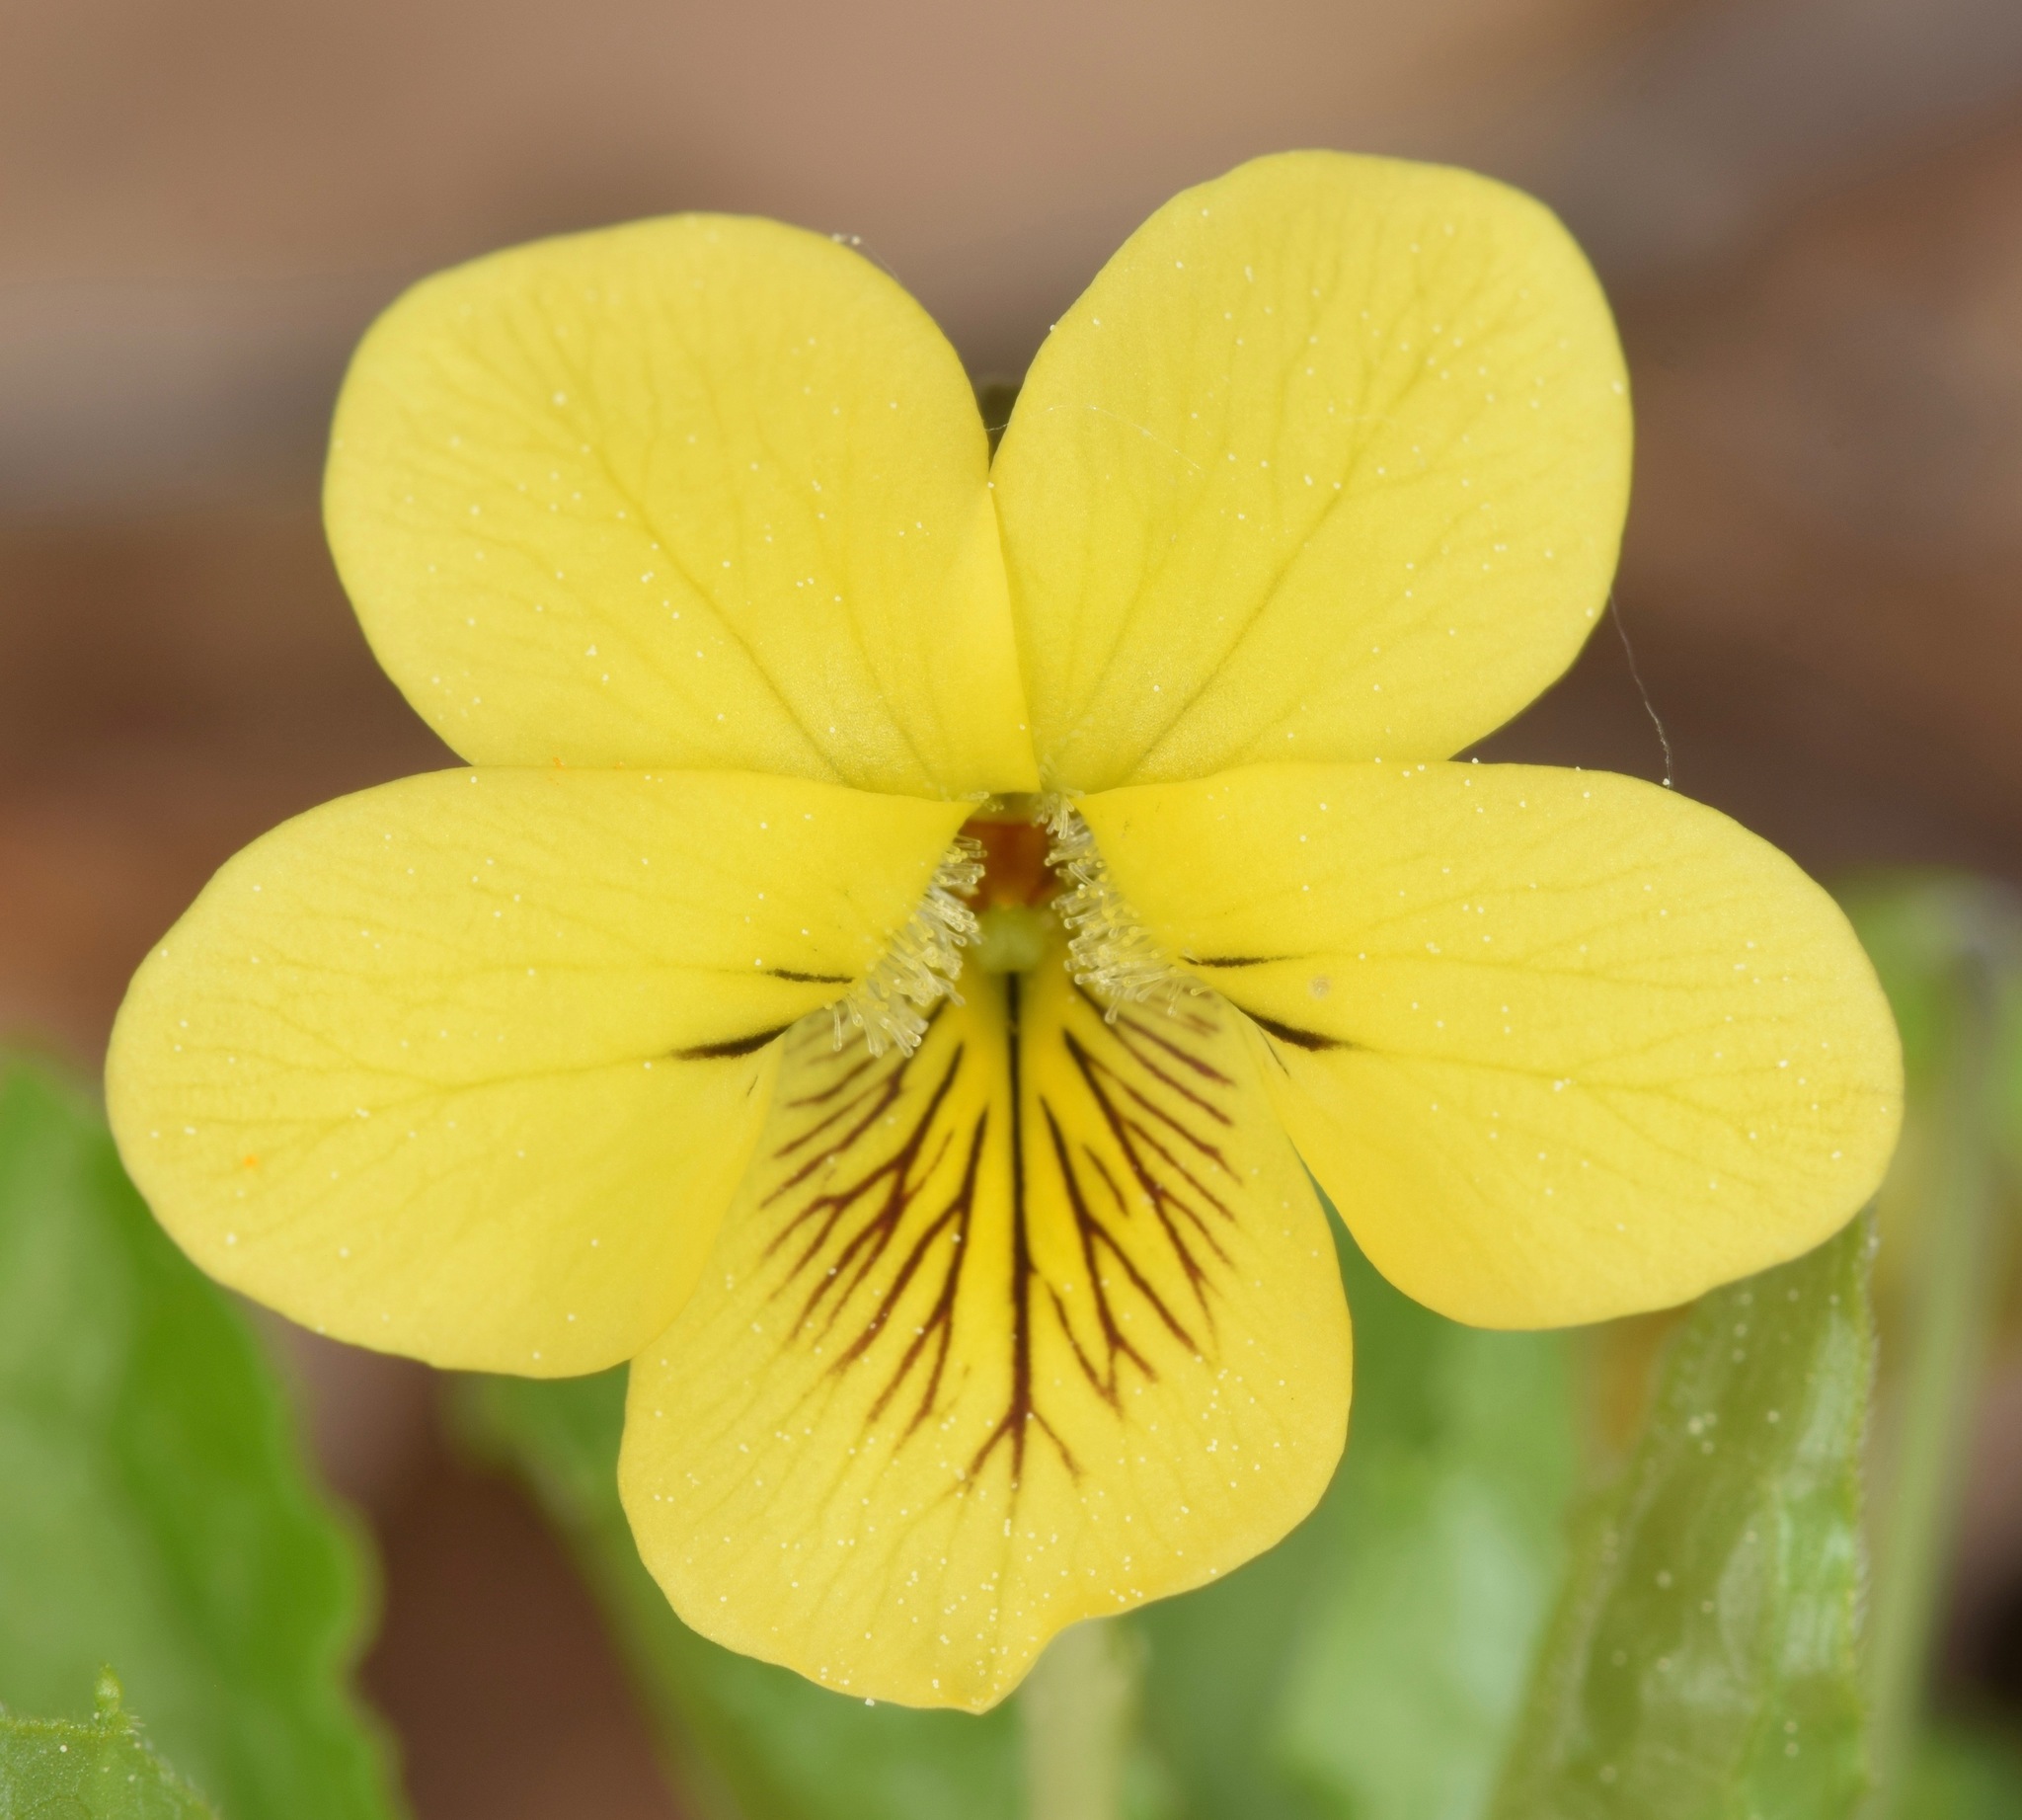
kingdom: Plantae
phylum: Tracheophyta
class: Magnoliopsida
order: Malpighiales
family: Violaceae
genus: Viola
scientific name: Viola glaberrima
